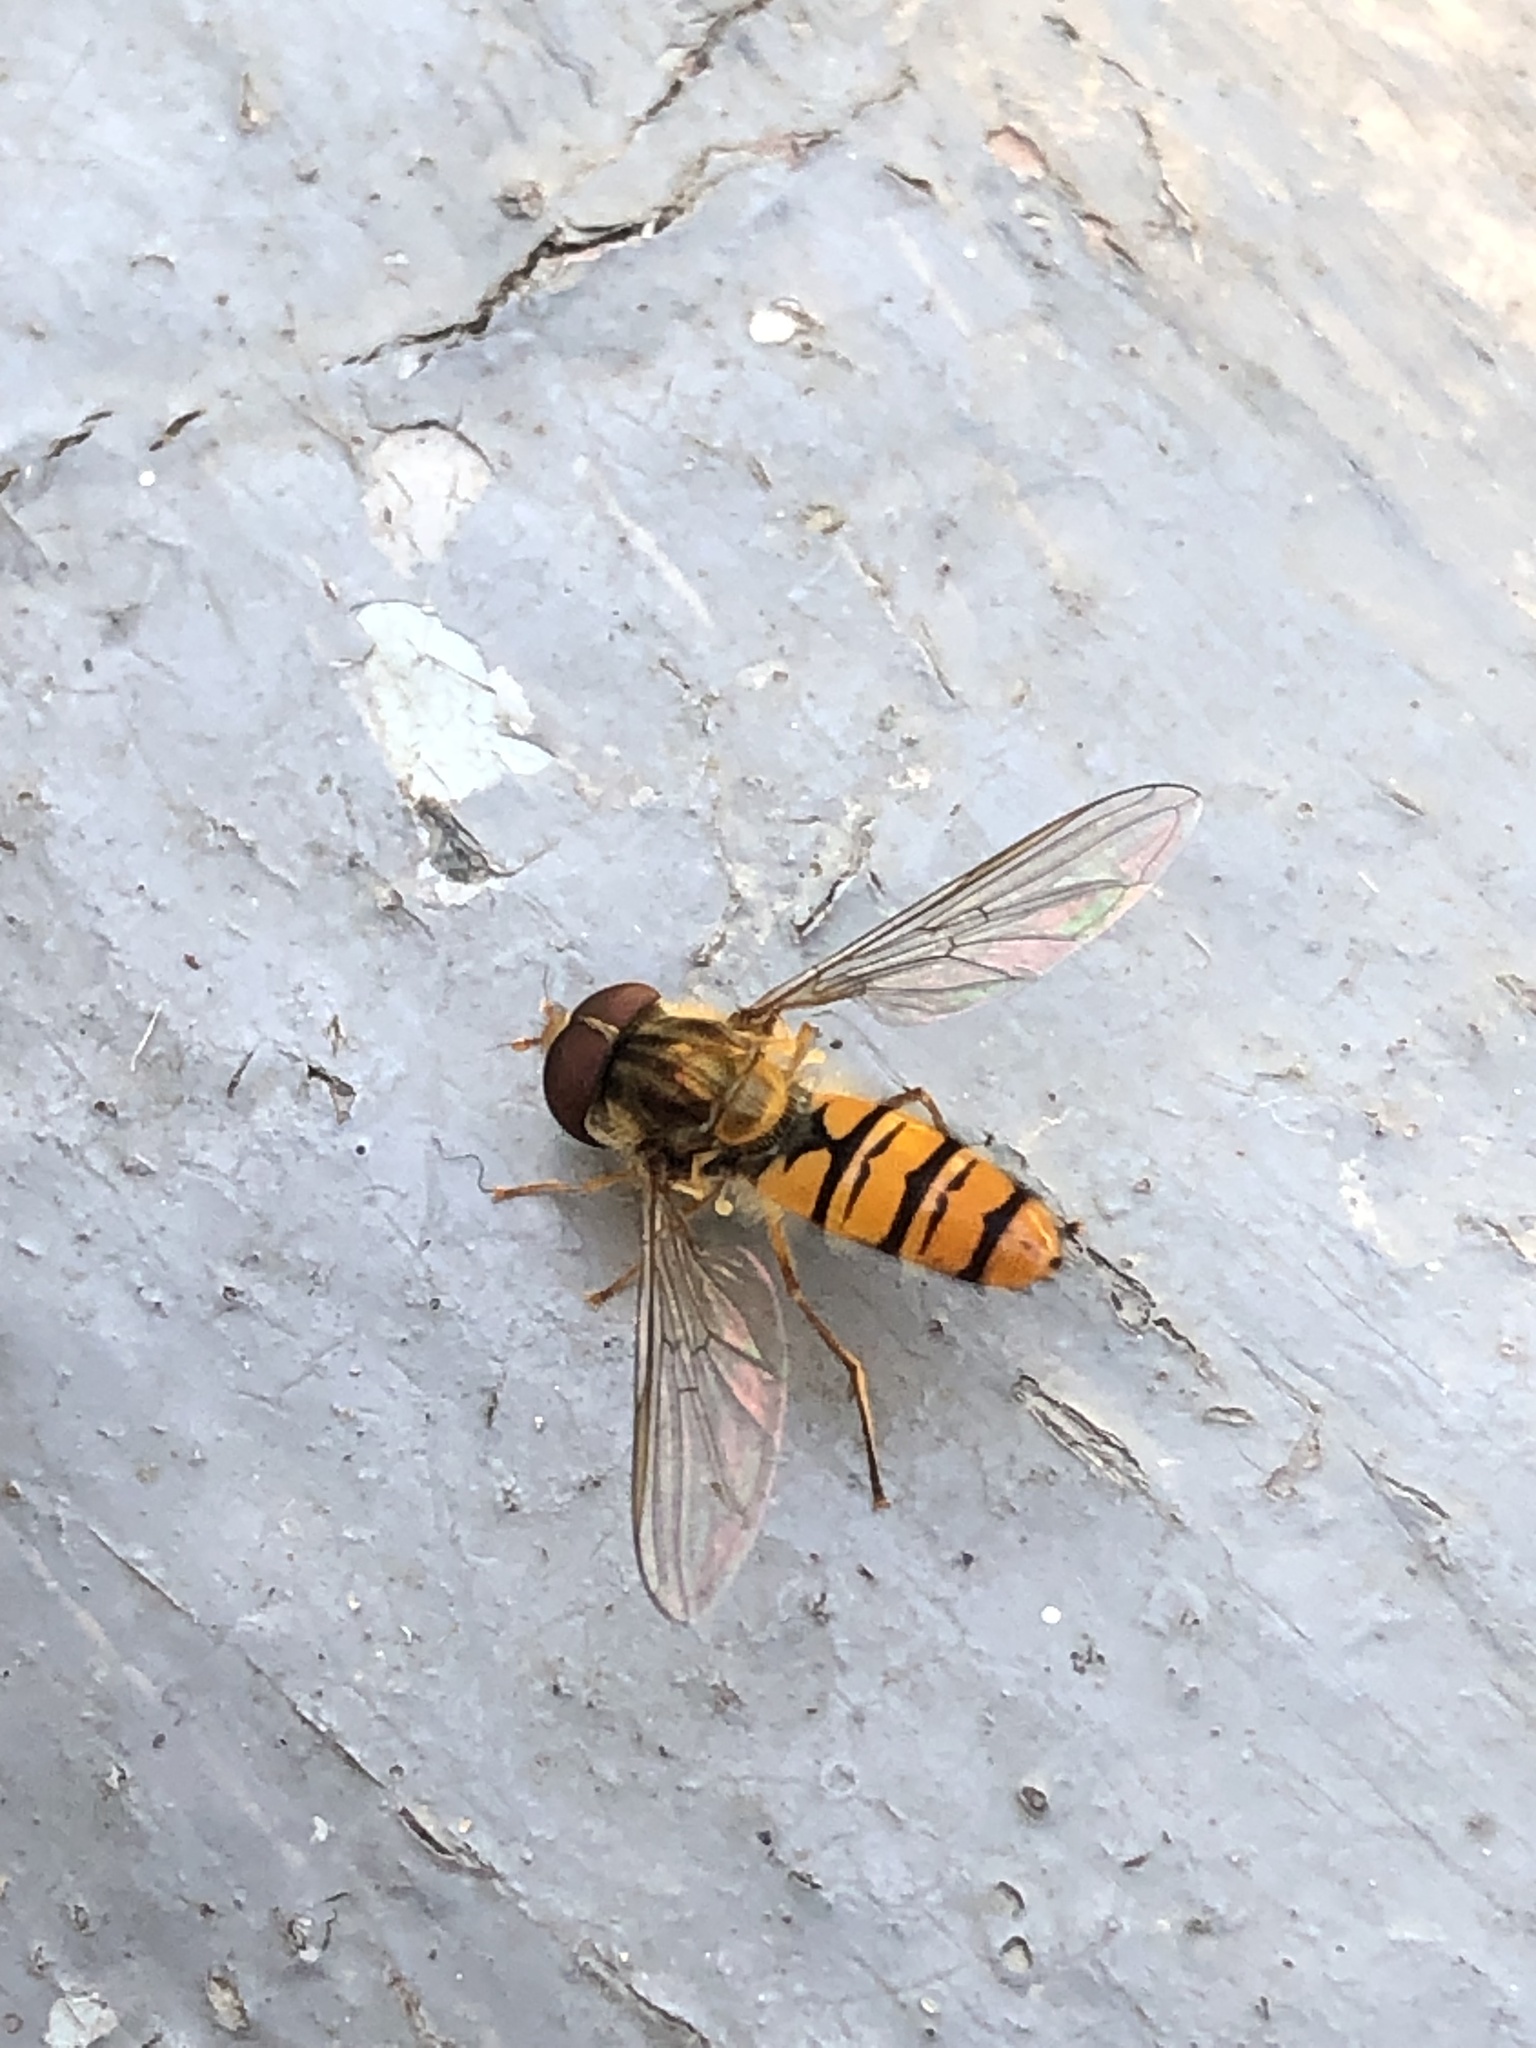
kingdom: Animalia
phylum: Arthropoda
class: Insecta
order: Diptera
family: Syrphidae
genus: Episyrphus
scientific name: Episyrphus balteatus
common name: Marmalade hoverfly
